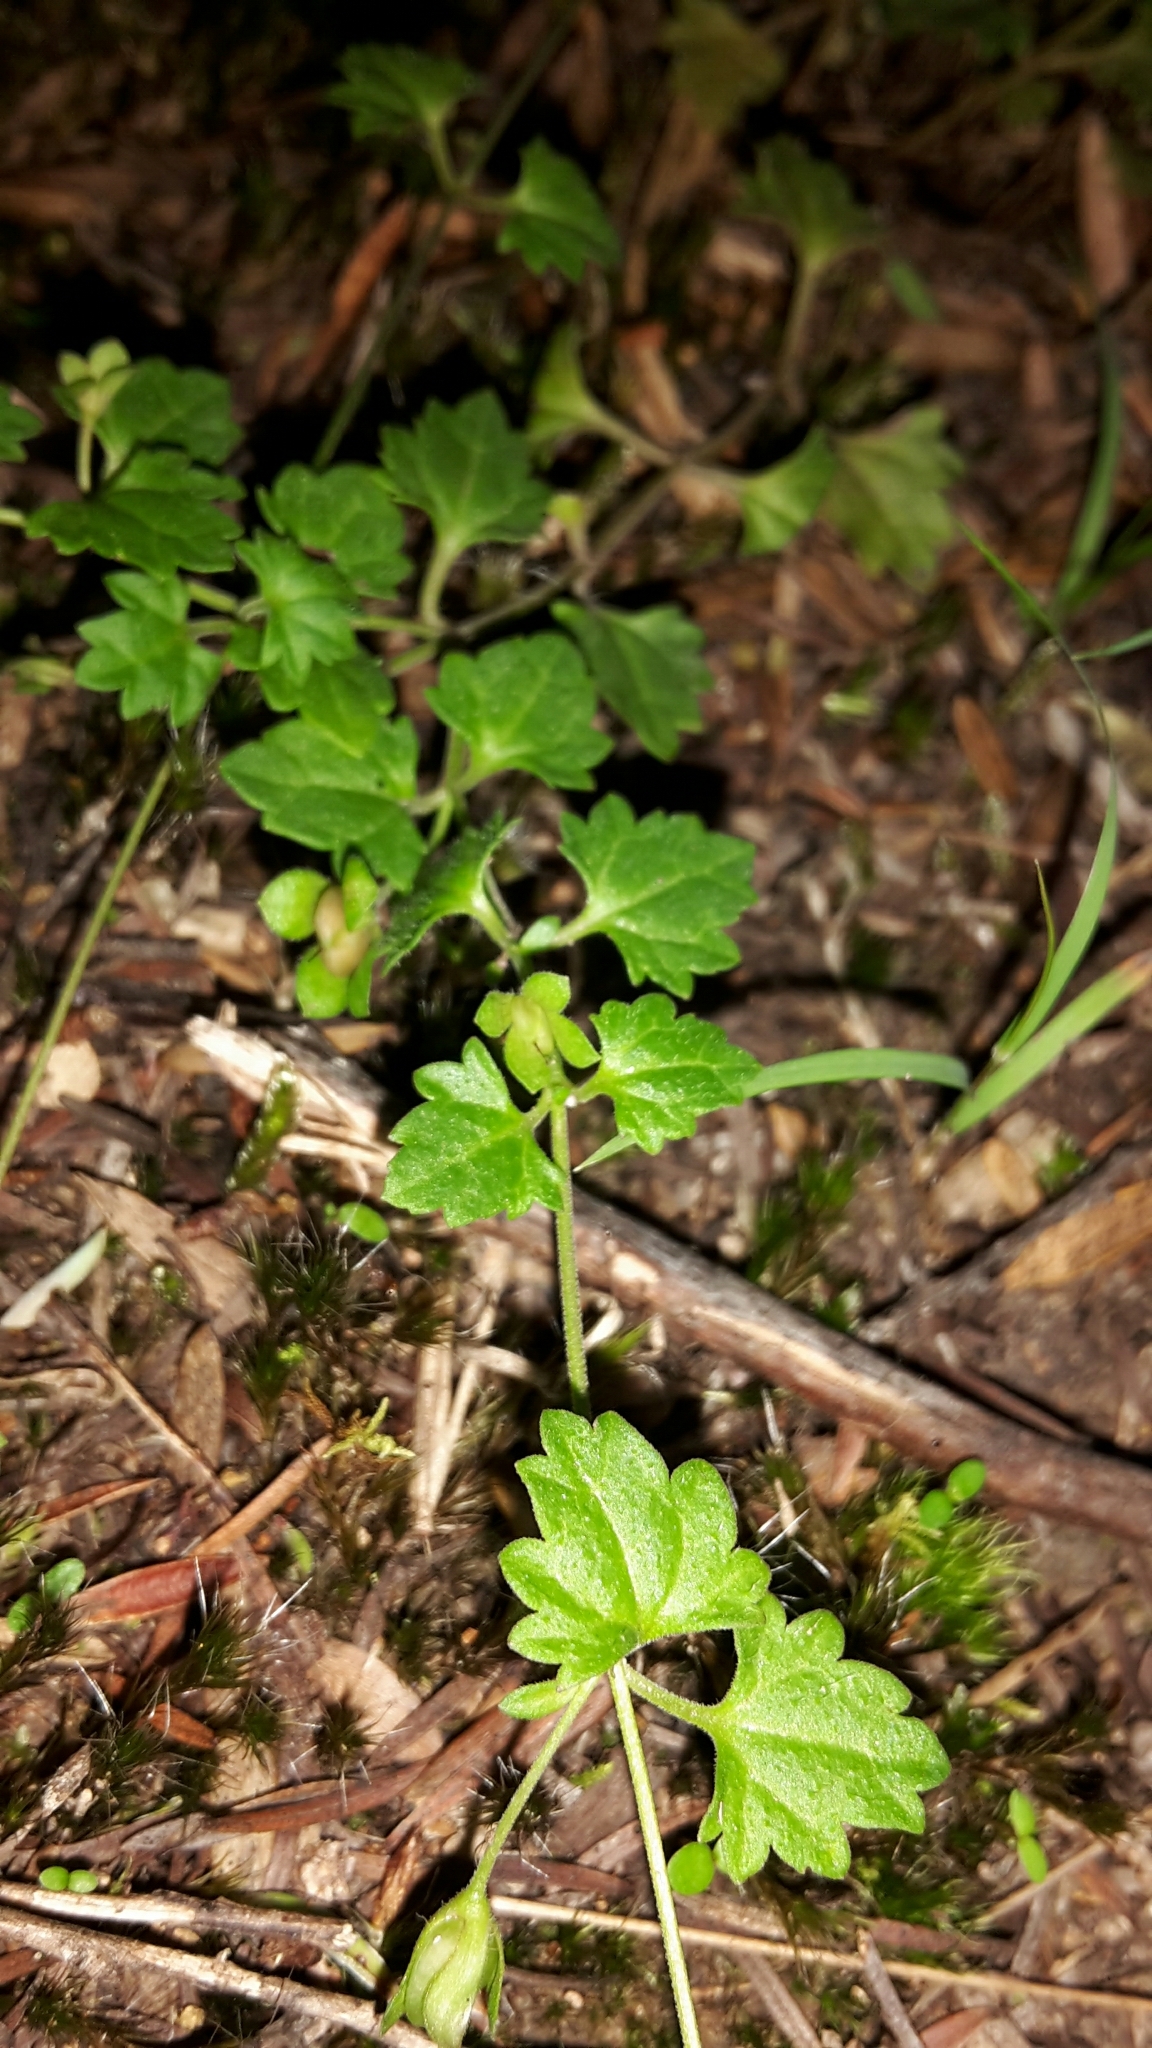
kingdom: Plantae
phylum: Tracheophyta
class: Magnoliopsida
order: Lamiales
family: Plantaginaceae
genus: Veronica
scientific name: Veronica plebeia
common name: Speedwell
